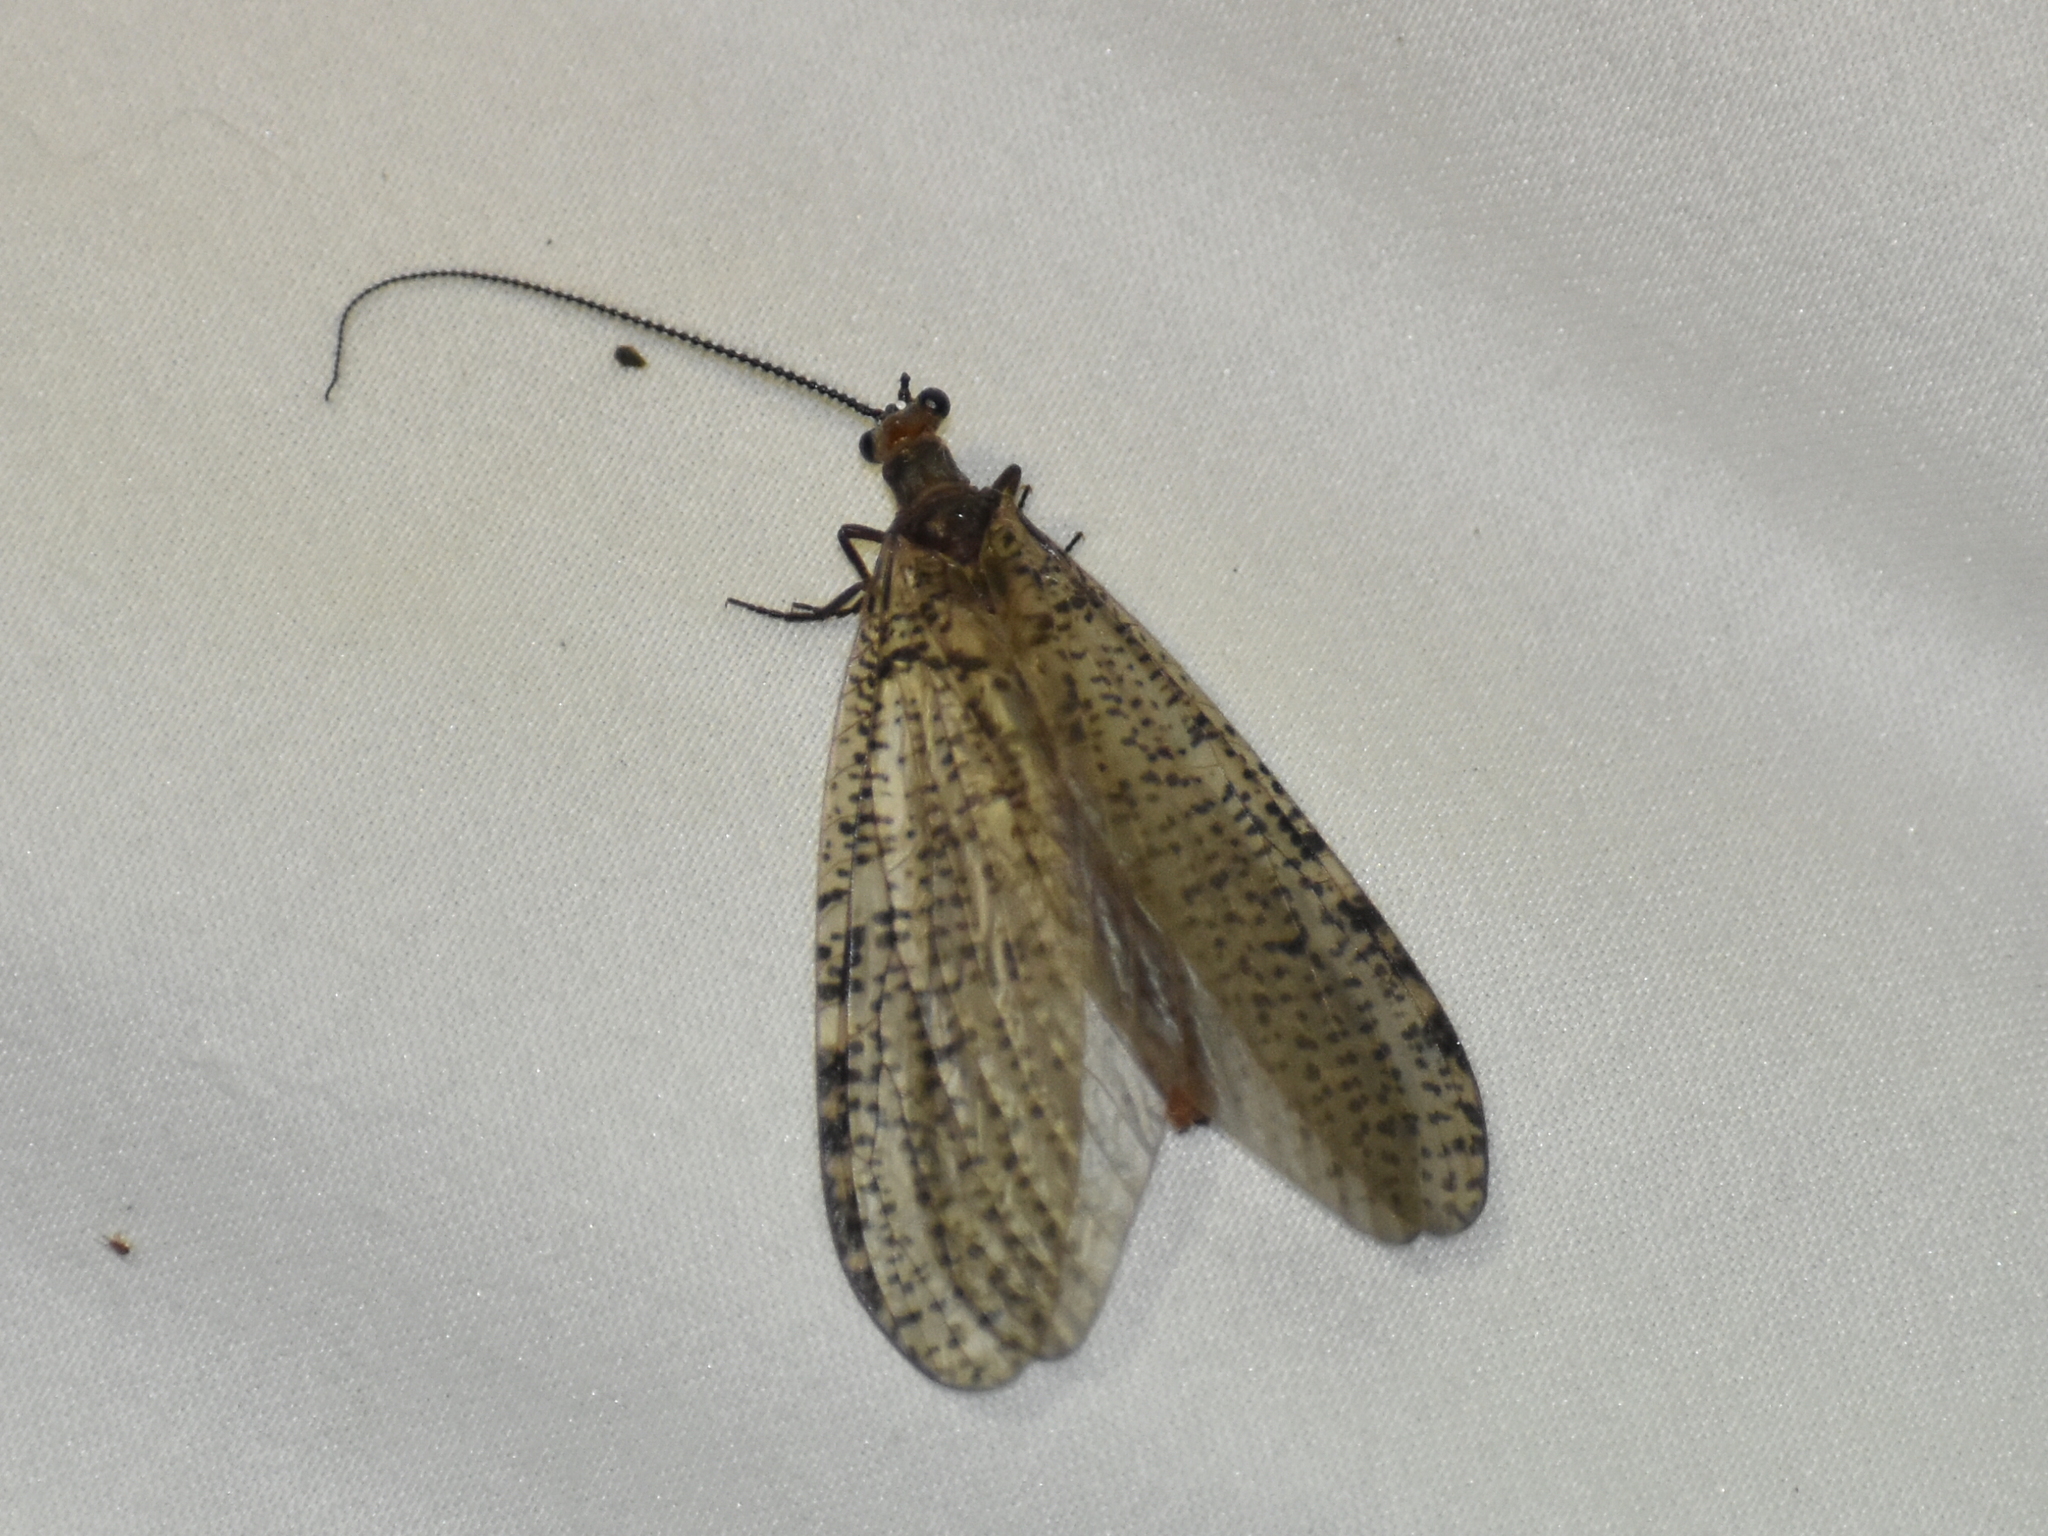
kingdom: Animalia
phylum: Arthropoda
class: Insecta
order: Megaloptera
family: Corydalidae
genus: Neohermes
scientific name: Neohermes concolor
